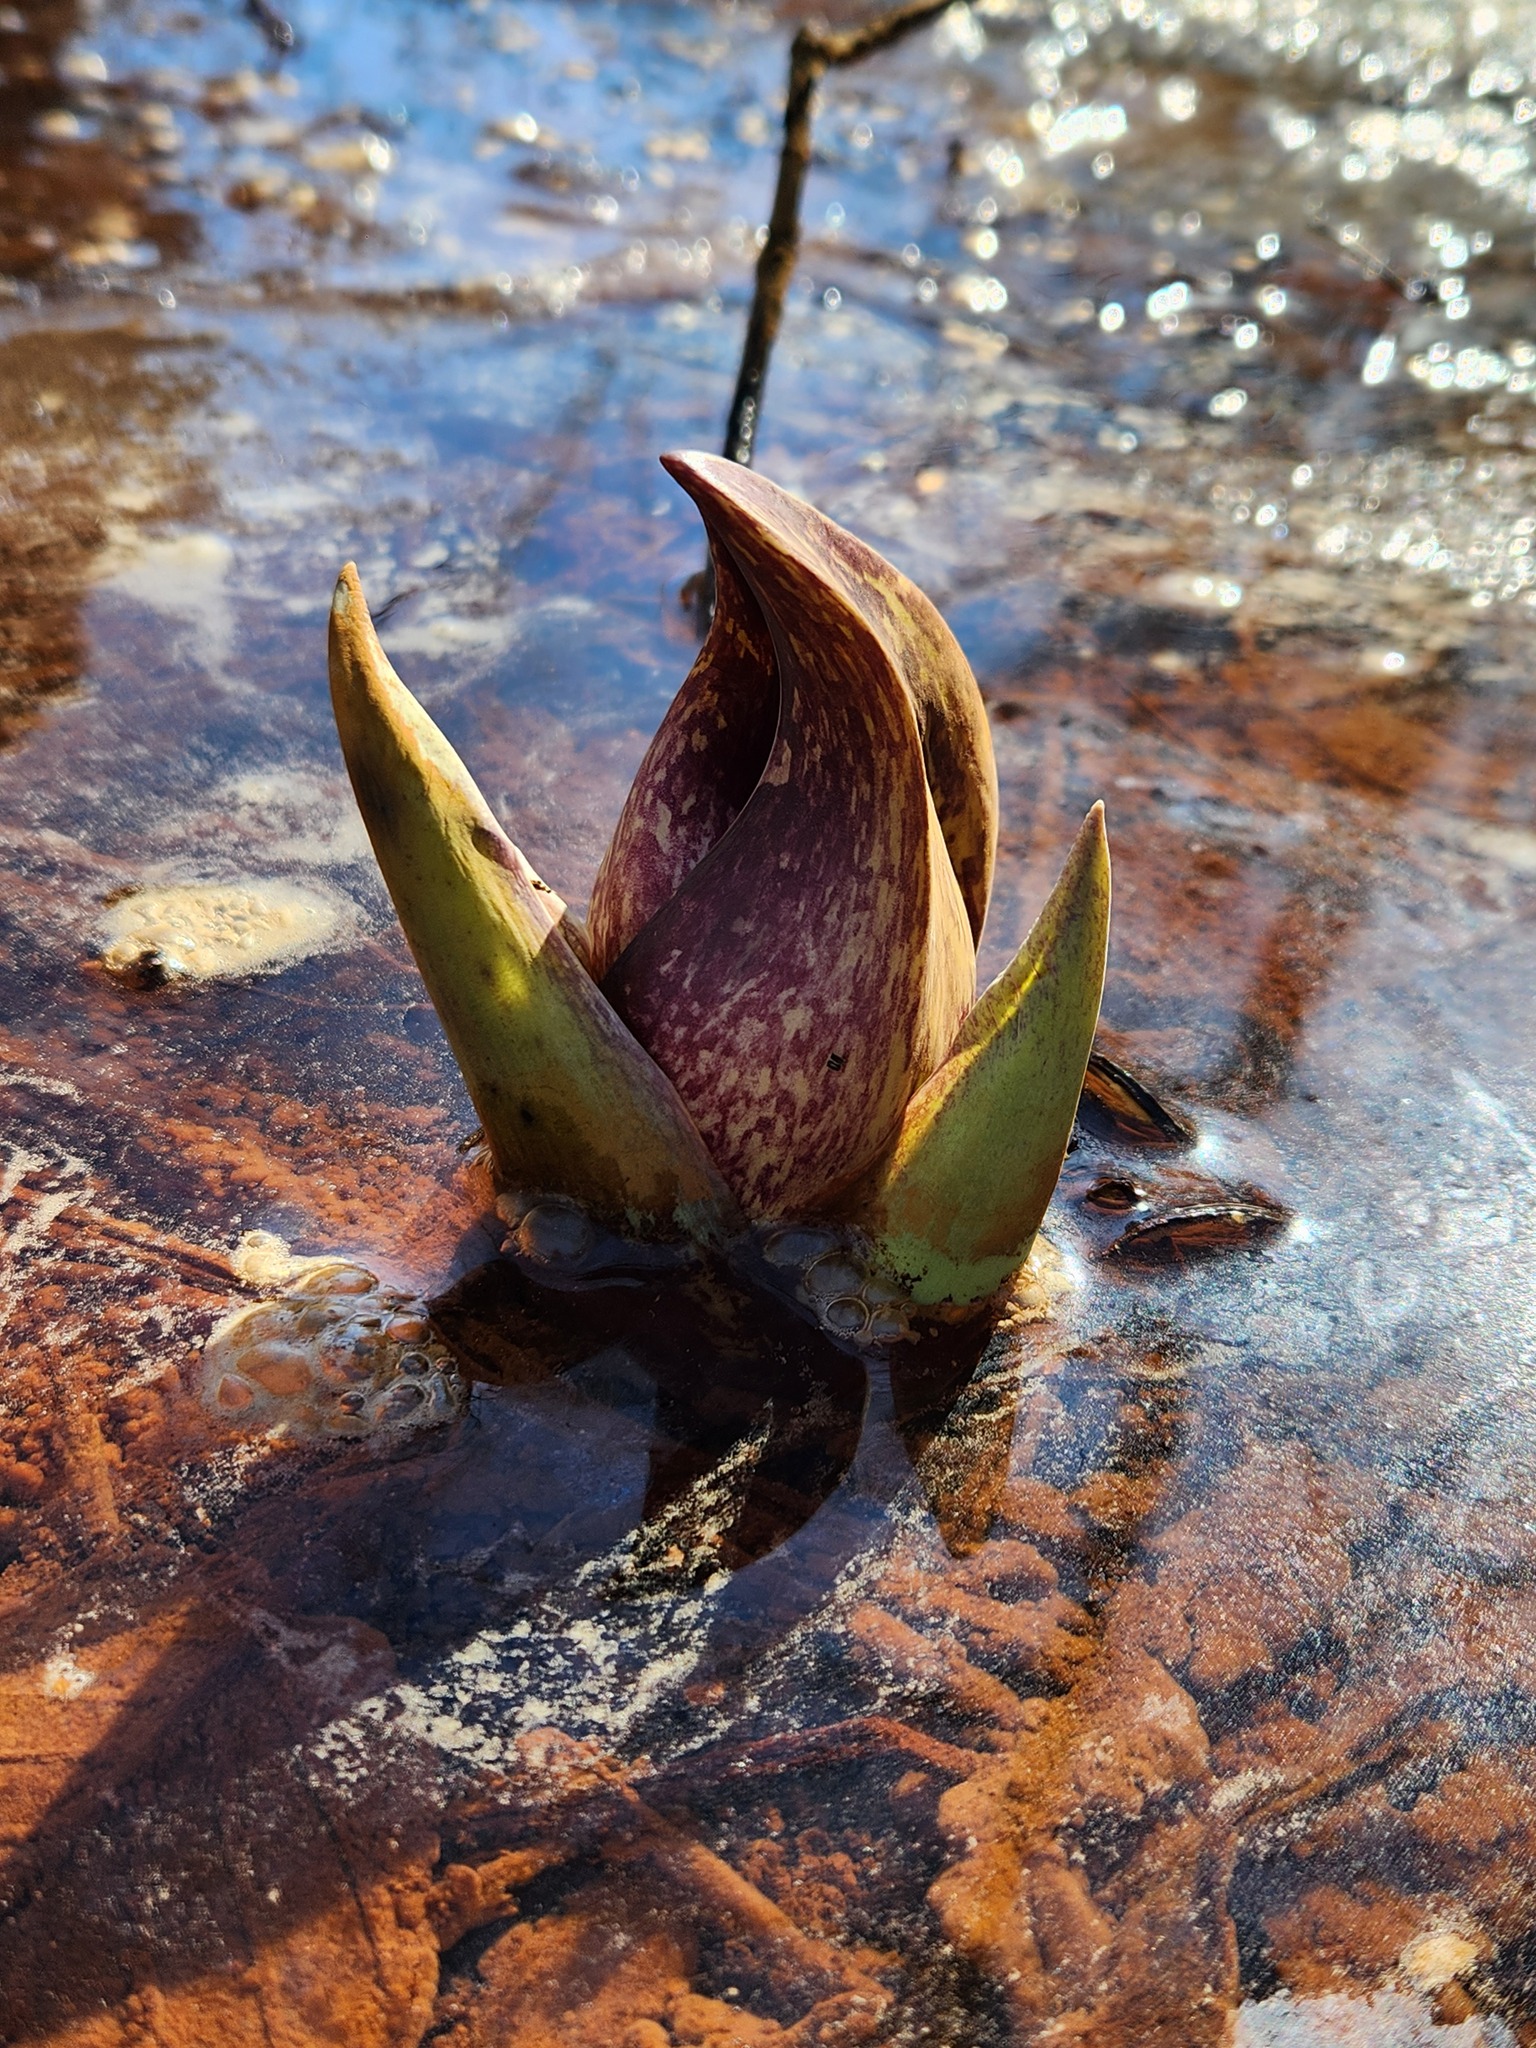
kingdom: Plantae
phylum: Tracheophyta
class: Liliopsida
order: Alismatales
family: Araceae
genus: Symplocarpus
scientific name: Symplocarpus foetidus
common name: Eastern skunk cabbage
